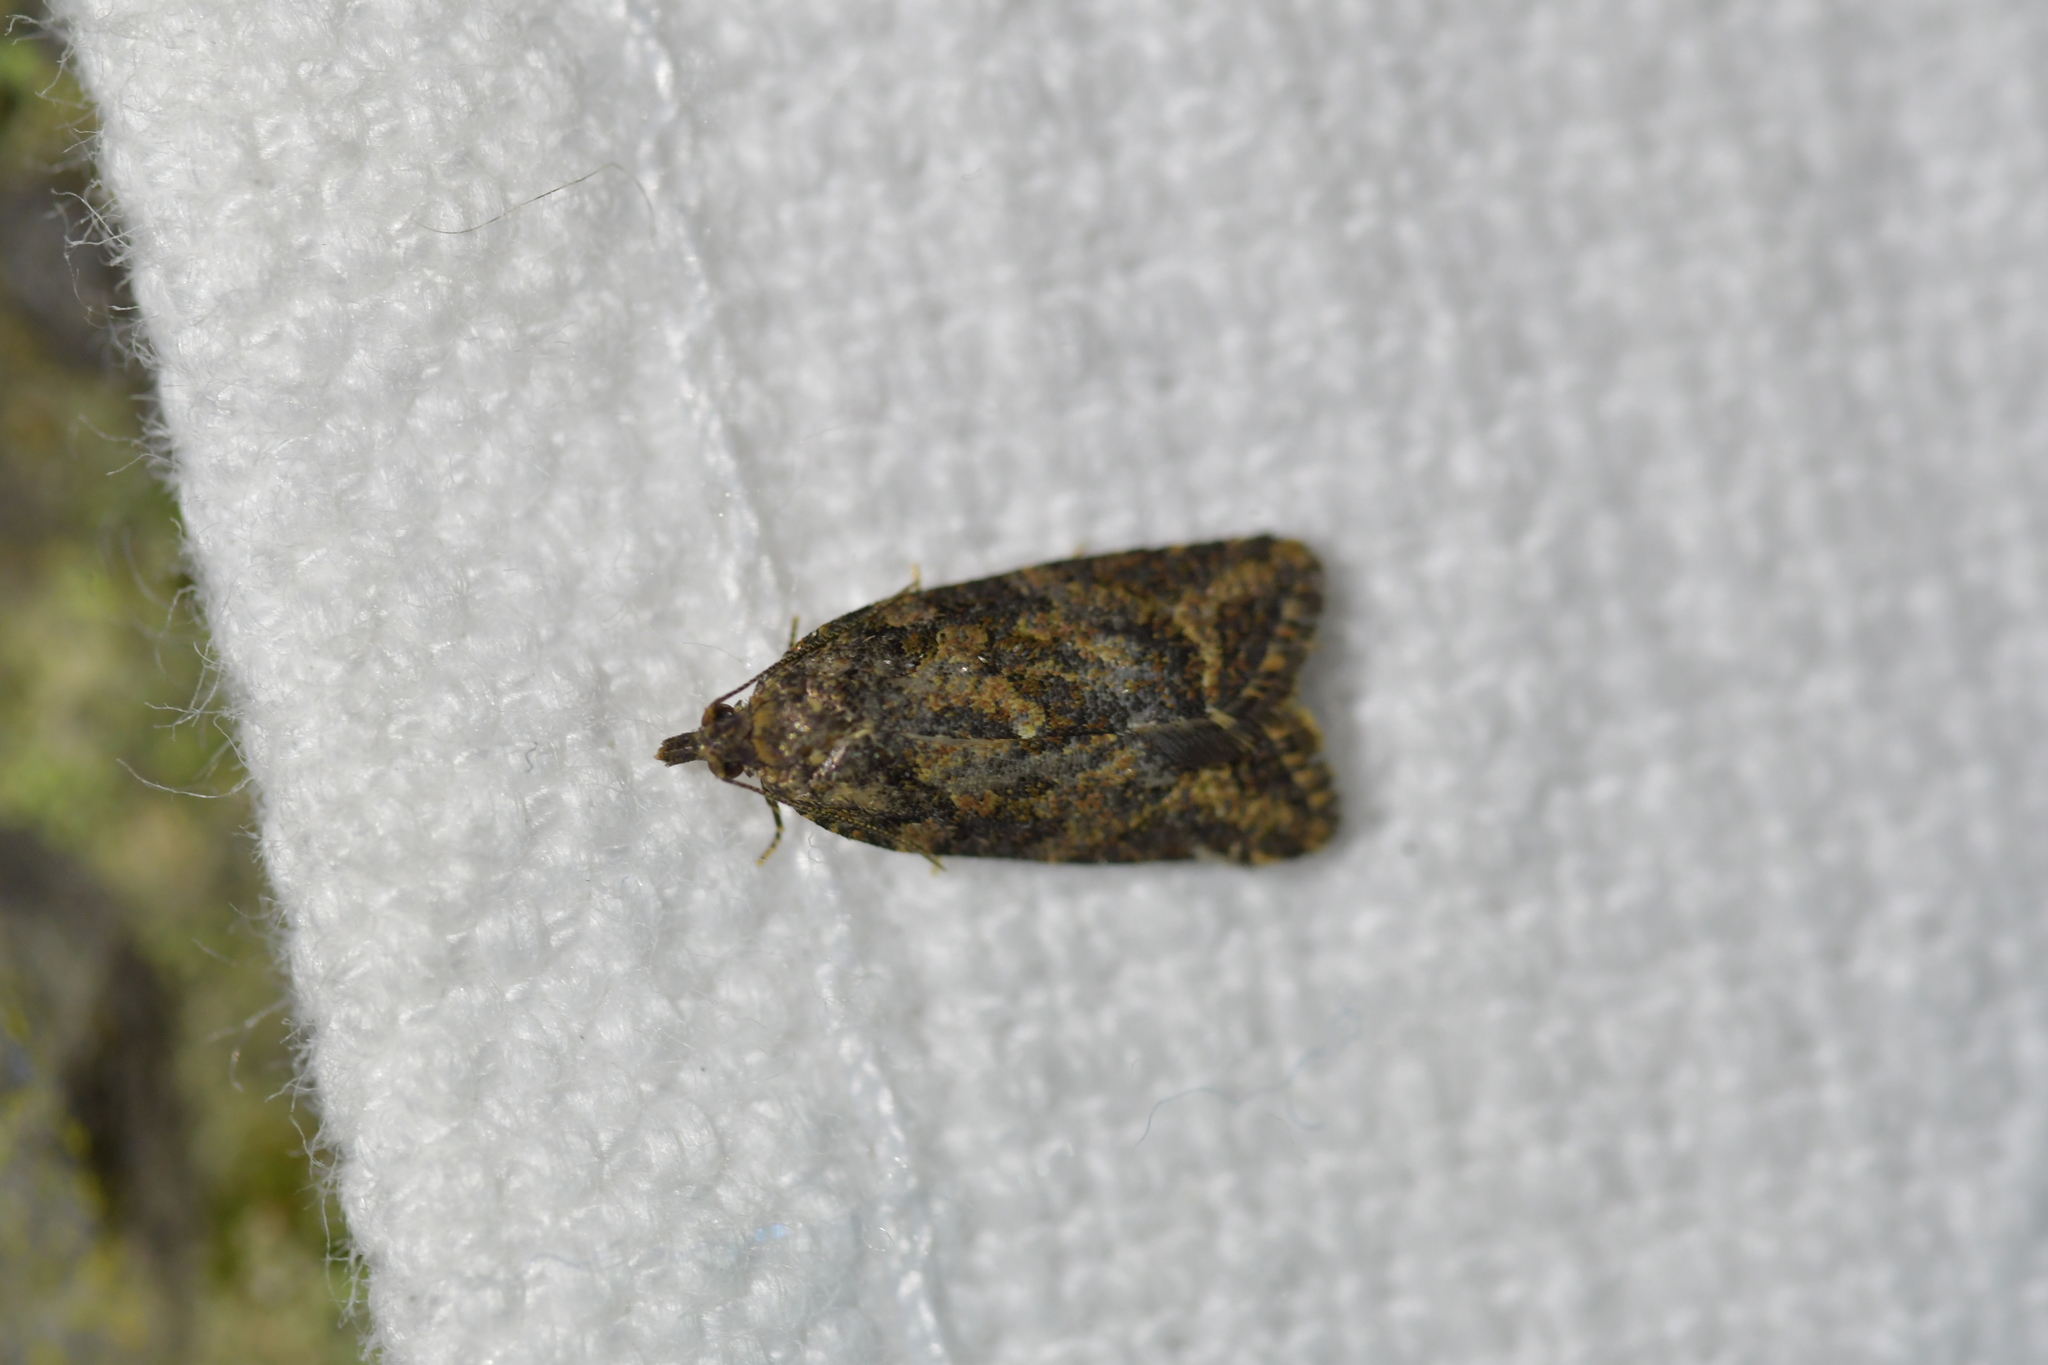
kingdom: Animalia
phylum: Arthropoda
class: Insecta
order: Lepidoptera
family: Tortricidae
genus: Capua
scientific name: Capua intractana
